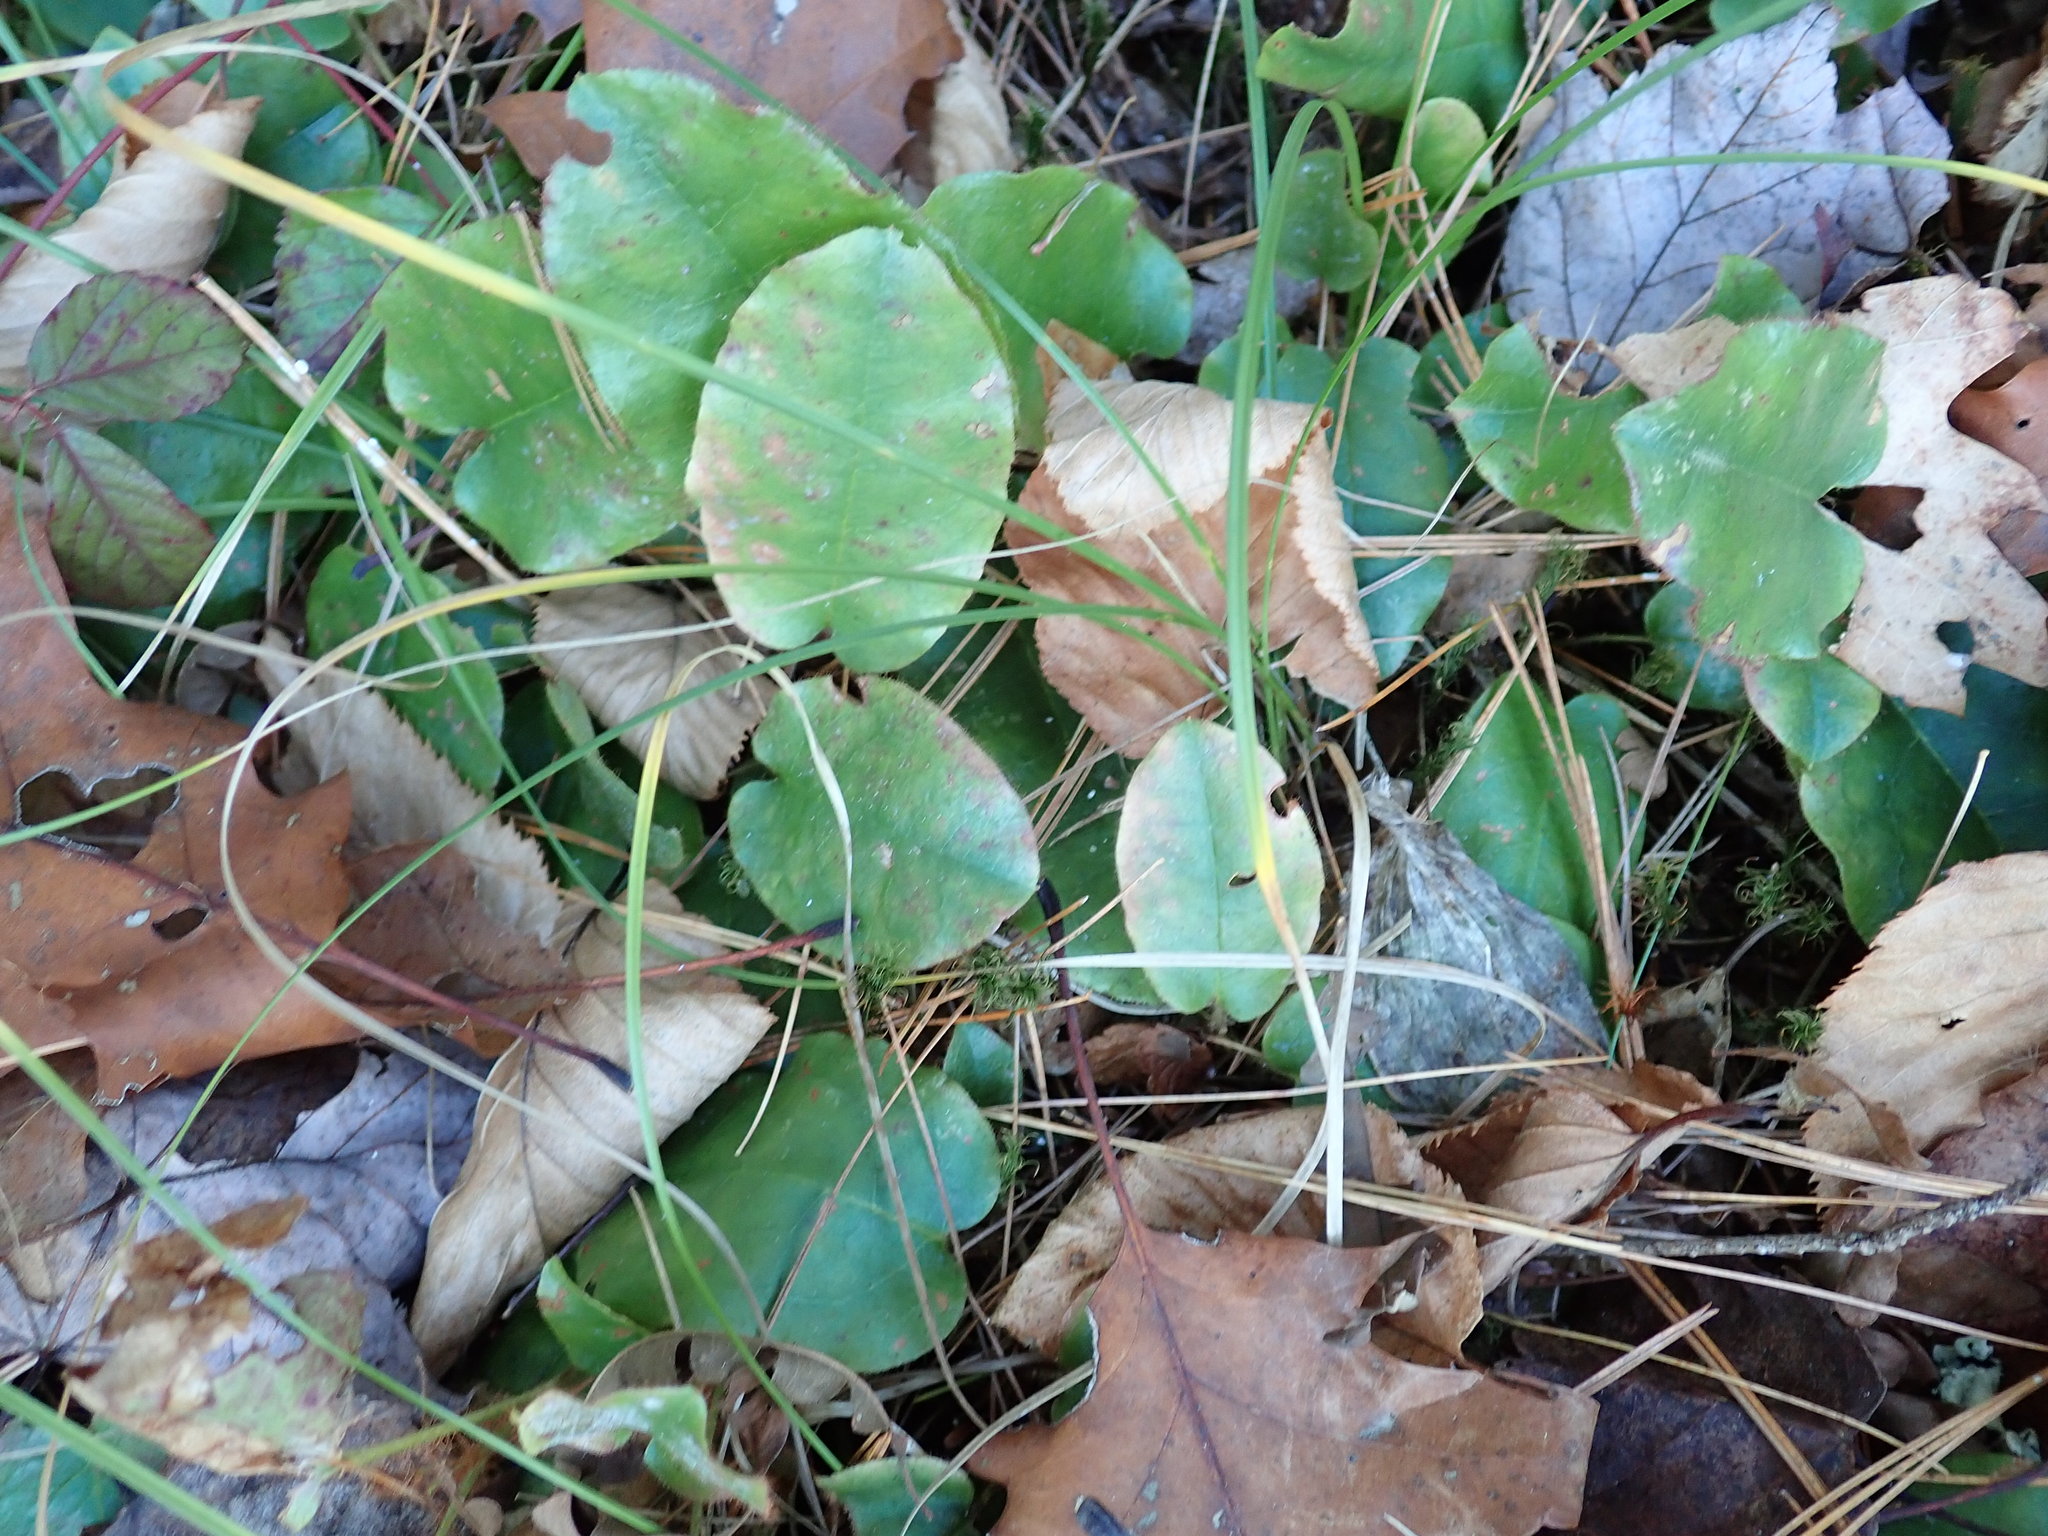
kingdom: Plantae
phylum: Tracheophyta
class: Magnoliopsida
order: Ericales
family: Ericaceae
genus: Epigaea
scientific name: Epigaea repens
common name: Gravelroot
